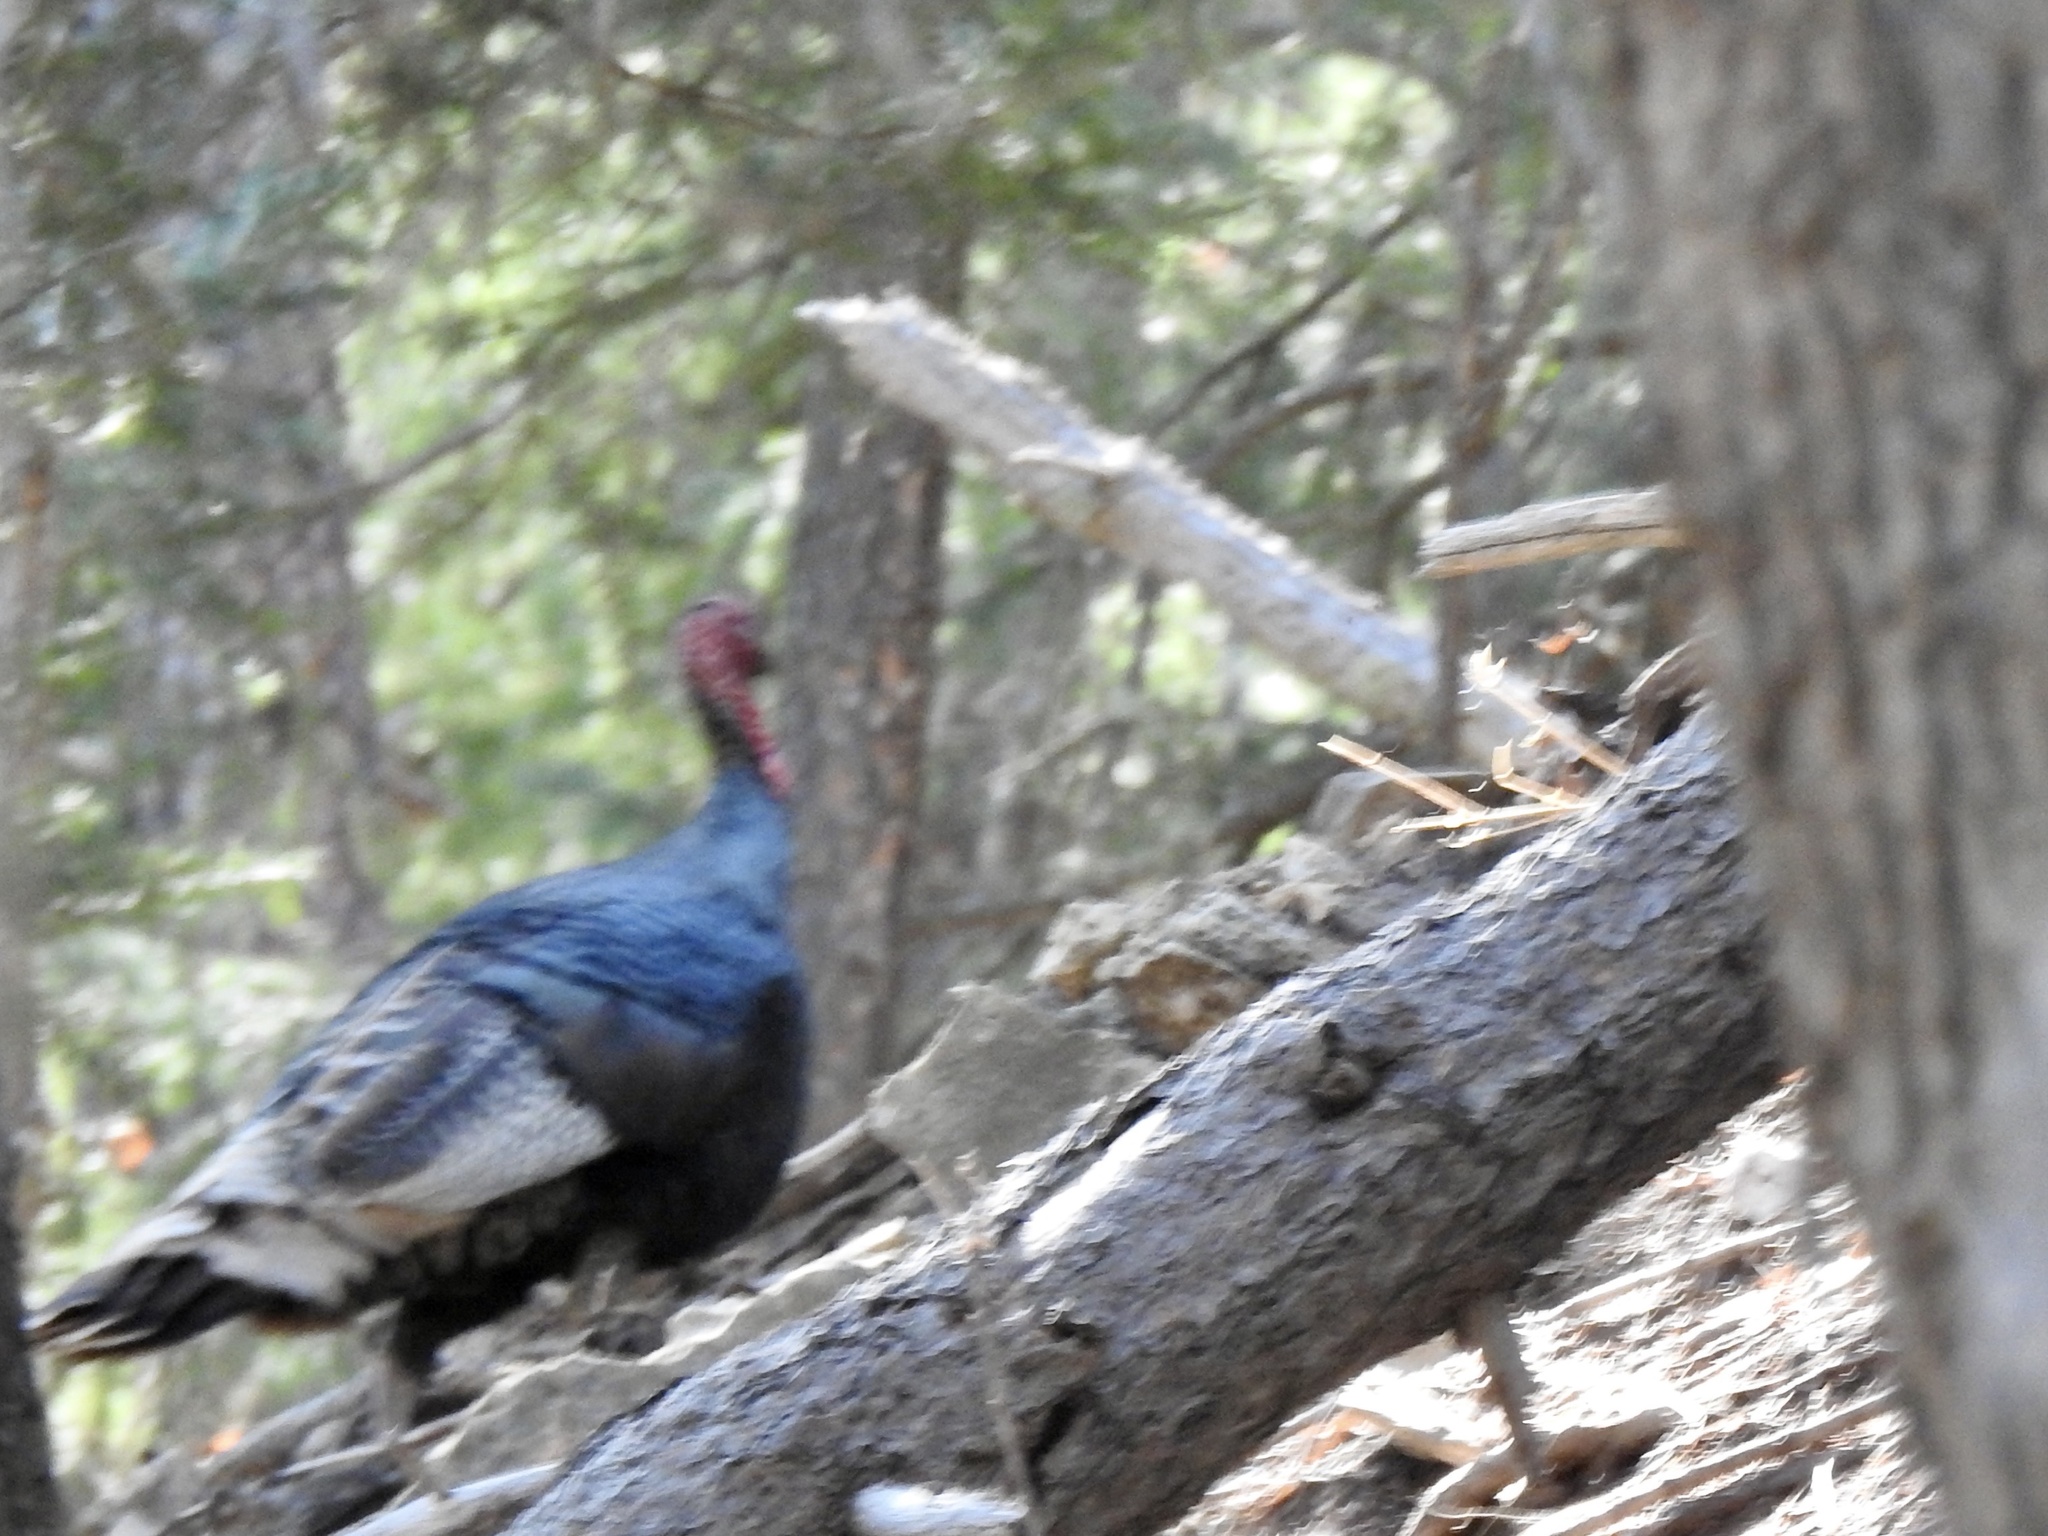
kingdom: Animalia
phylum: Chordata
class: Aves
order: Galliformes
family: Phasianidae
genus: Meleagris
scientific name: Meleagris gallopavo
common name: Wild turkey
